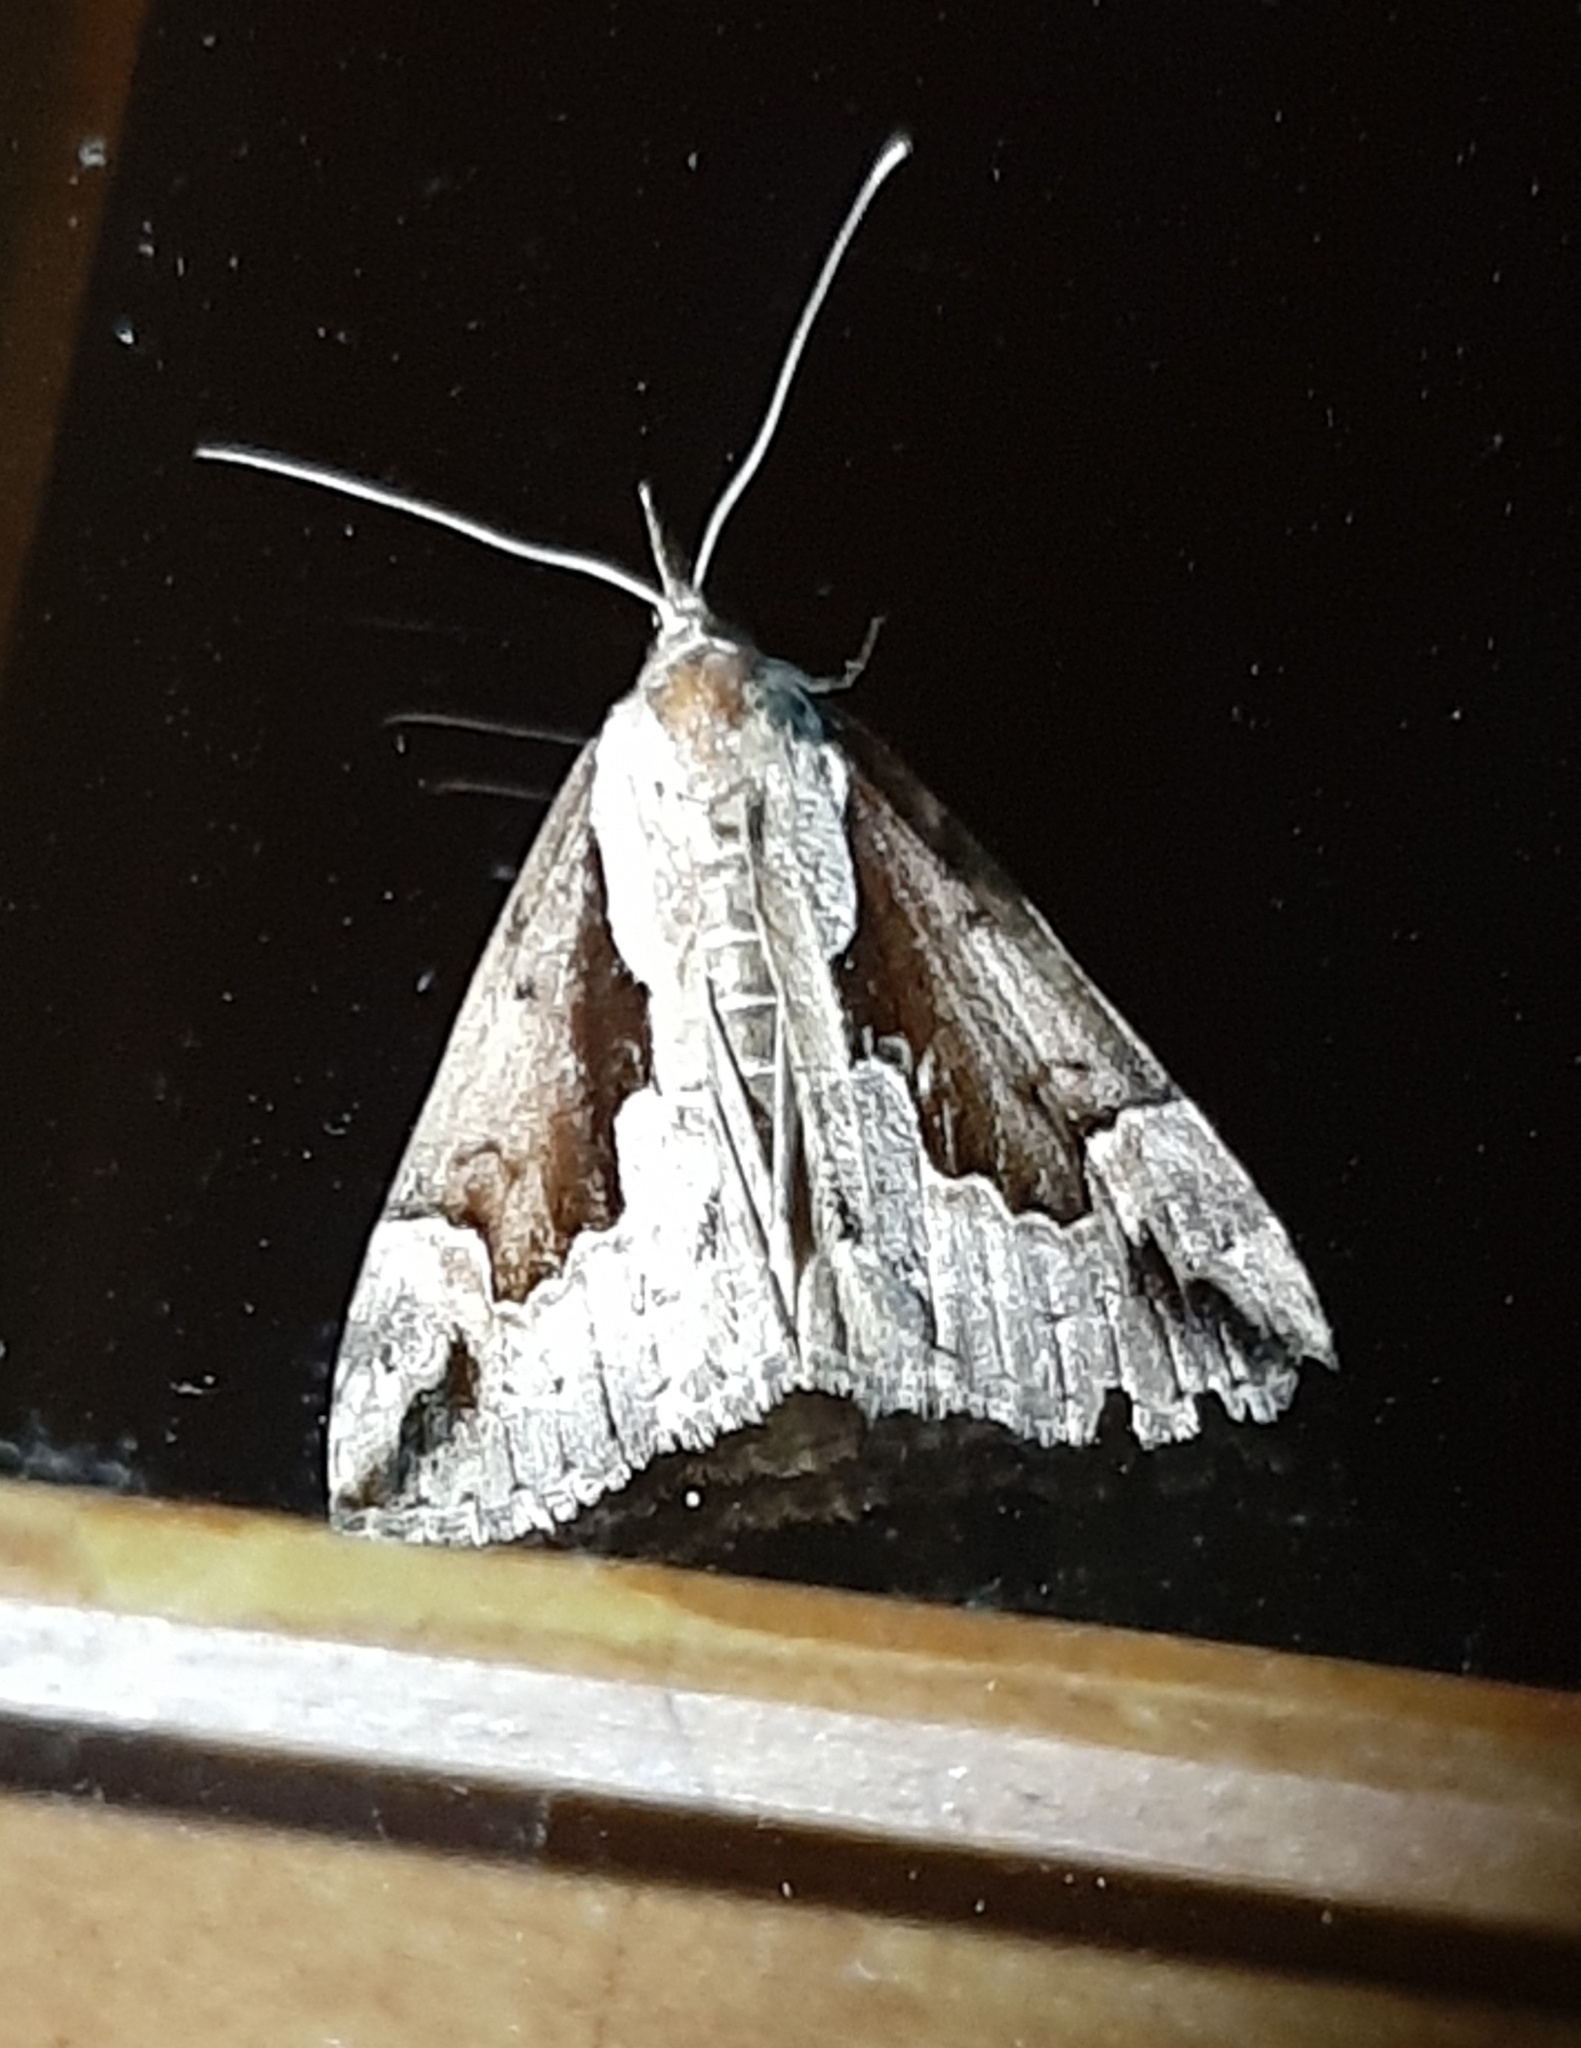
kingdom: Animalia
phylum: Arthropoda
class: Insecta
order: Lepidoptera
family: Erebidae
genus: Hypena
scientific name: Hypena baltimoralis
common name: Baltimore snout
